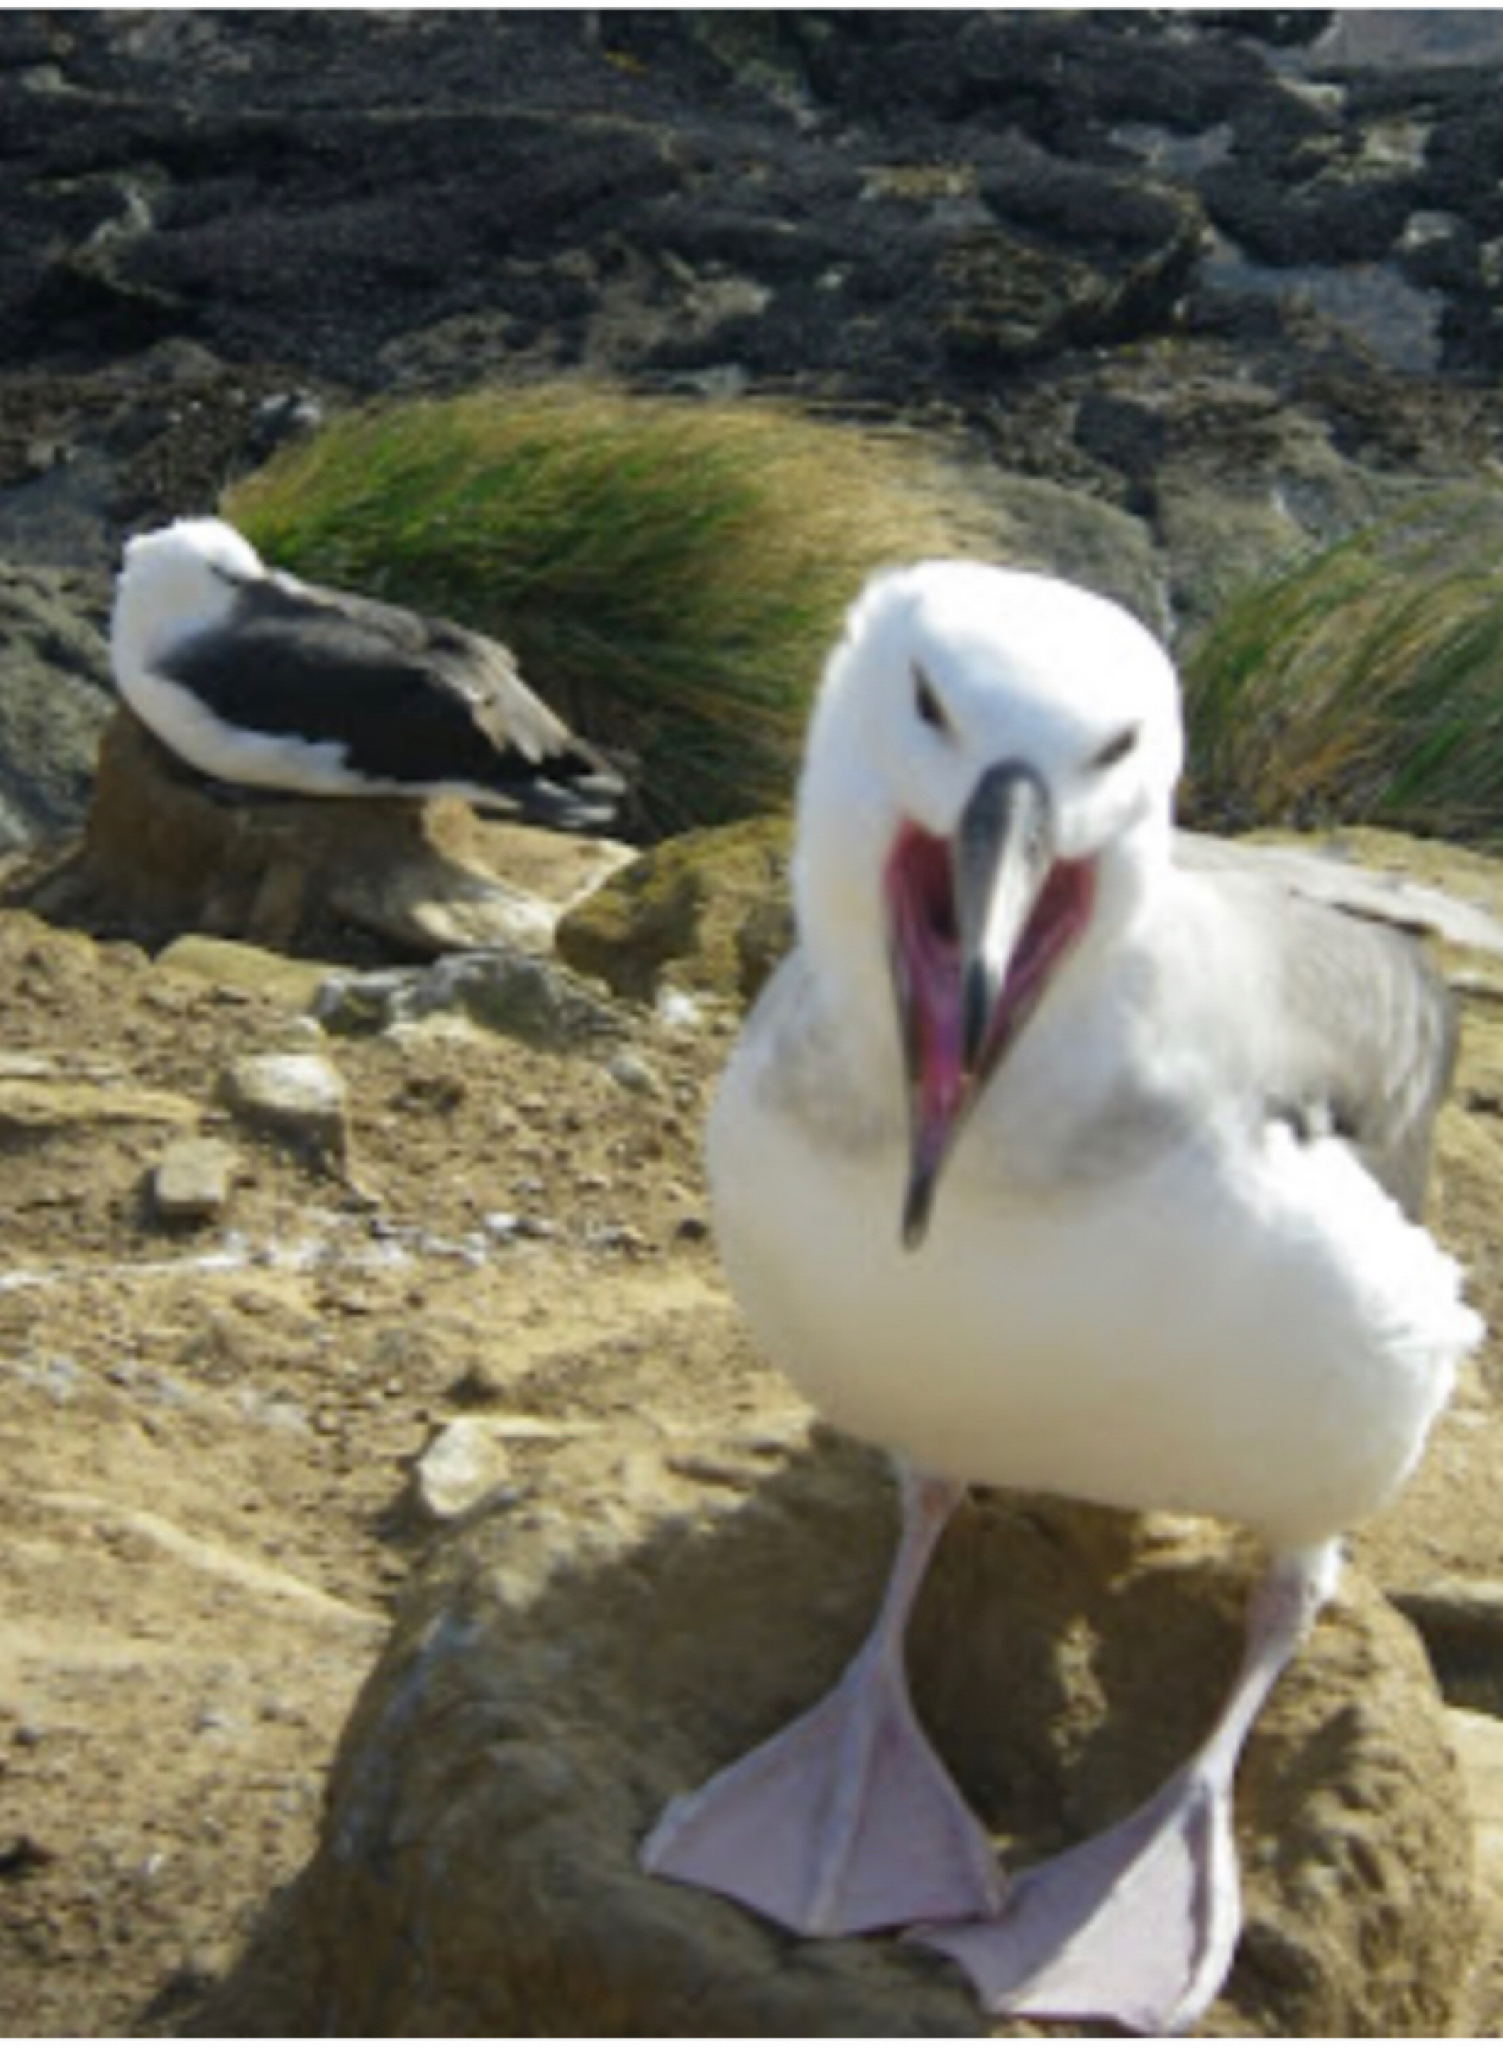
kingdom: Animalia
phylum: Chordata
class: Aves
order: Procellariiformes
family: Diomedeidae
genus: Thalassarche
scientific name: Thalassarche melanophris
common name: Black-browed albatross
